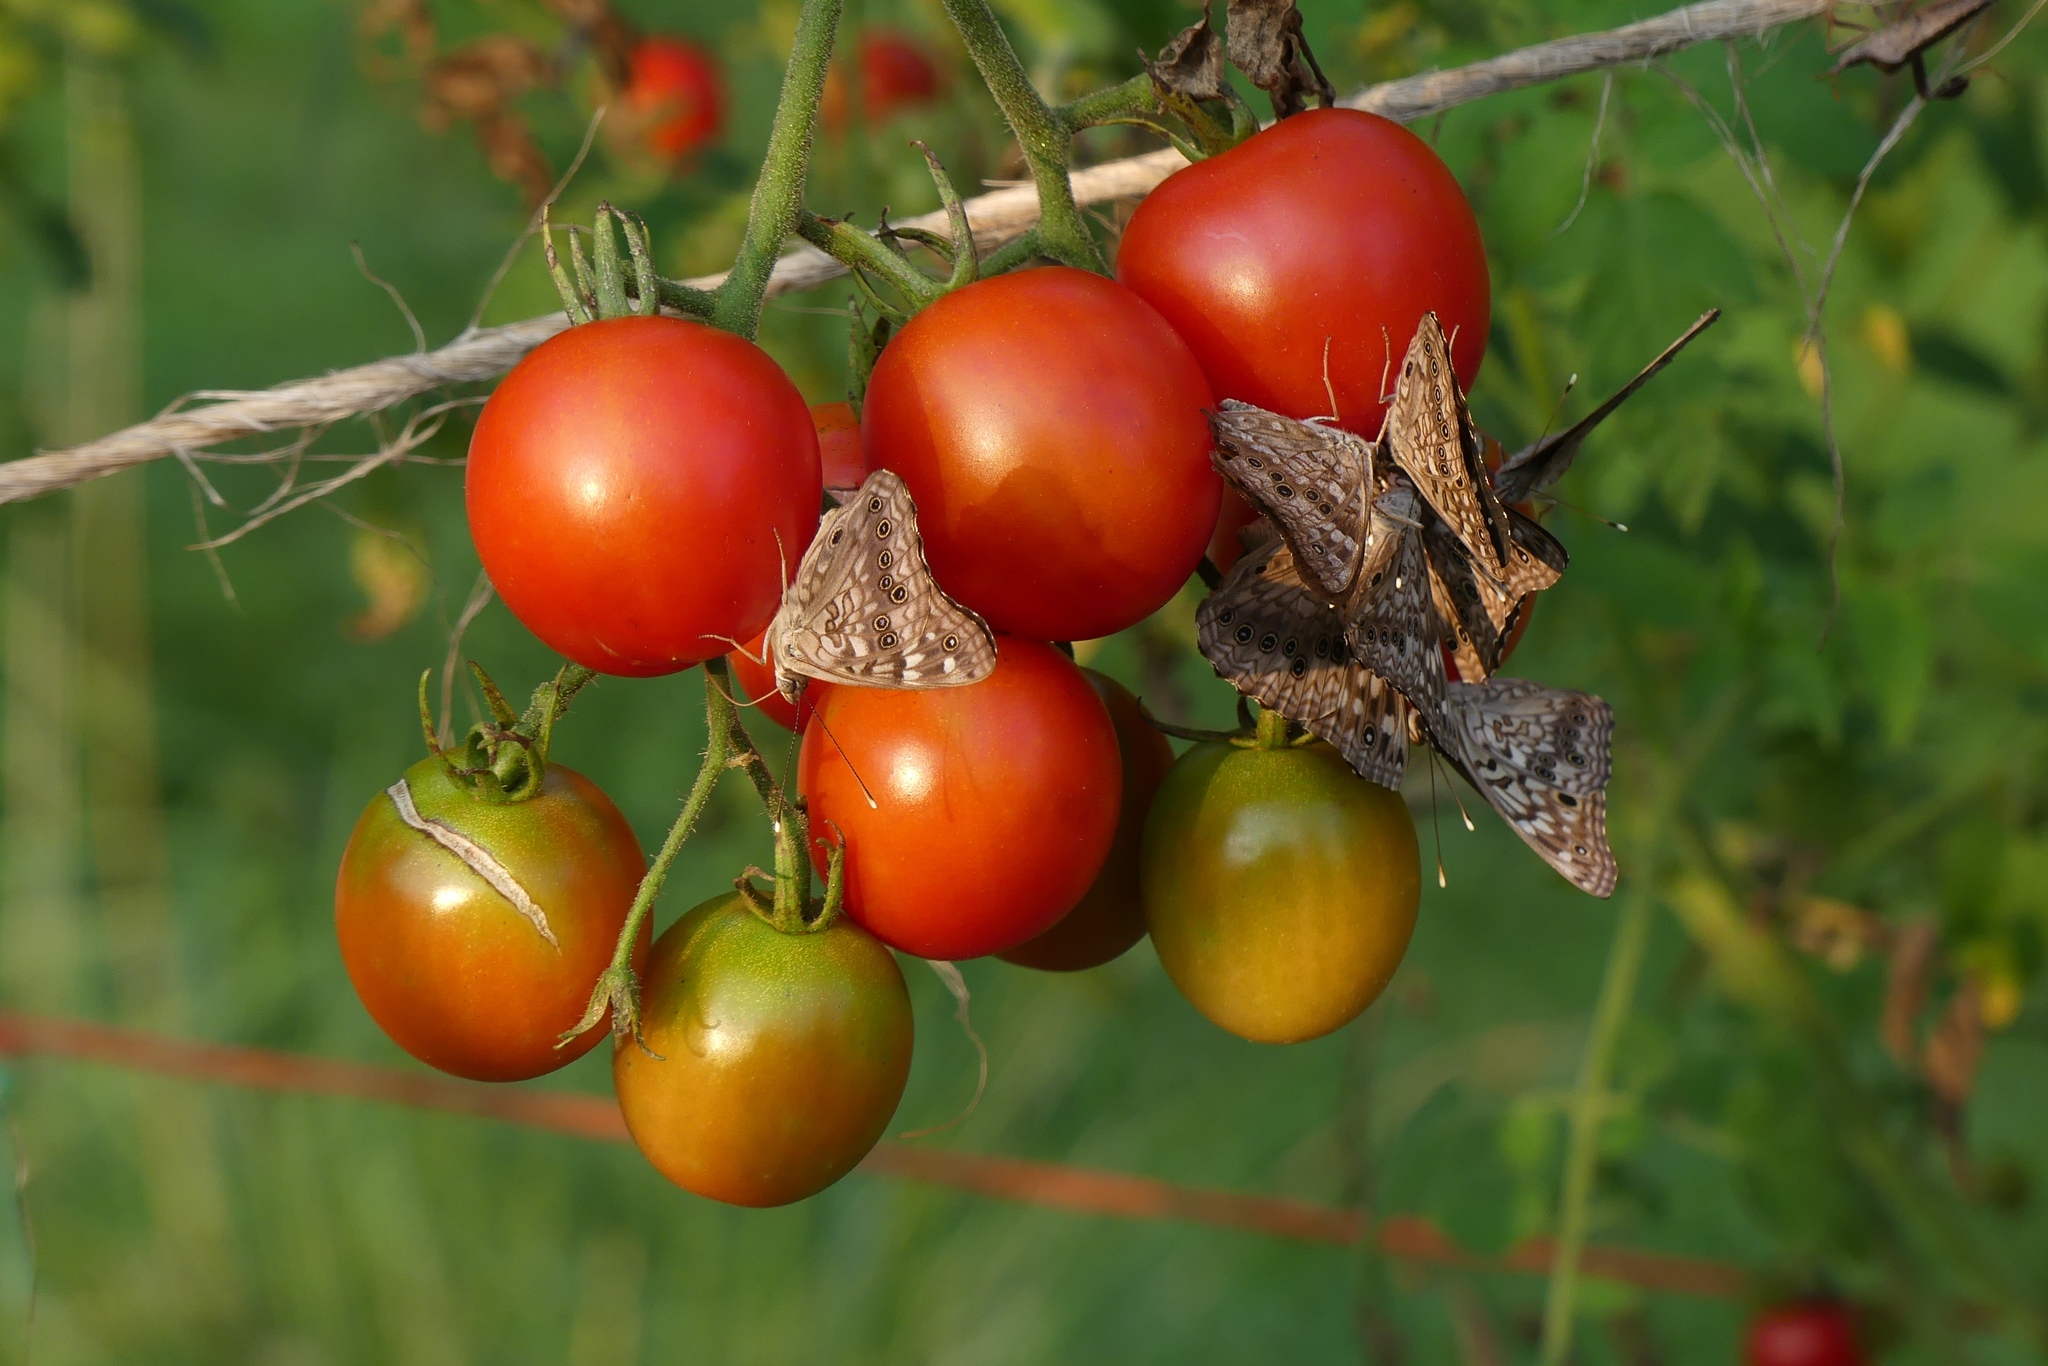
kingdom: Animalia
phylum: Arthropoda
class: Insecta
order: Lepidoptera
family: Nymphalidae
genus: Asterocampa
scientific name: Asterocampa celtis
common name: Hackberry emperor
